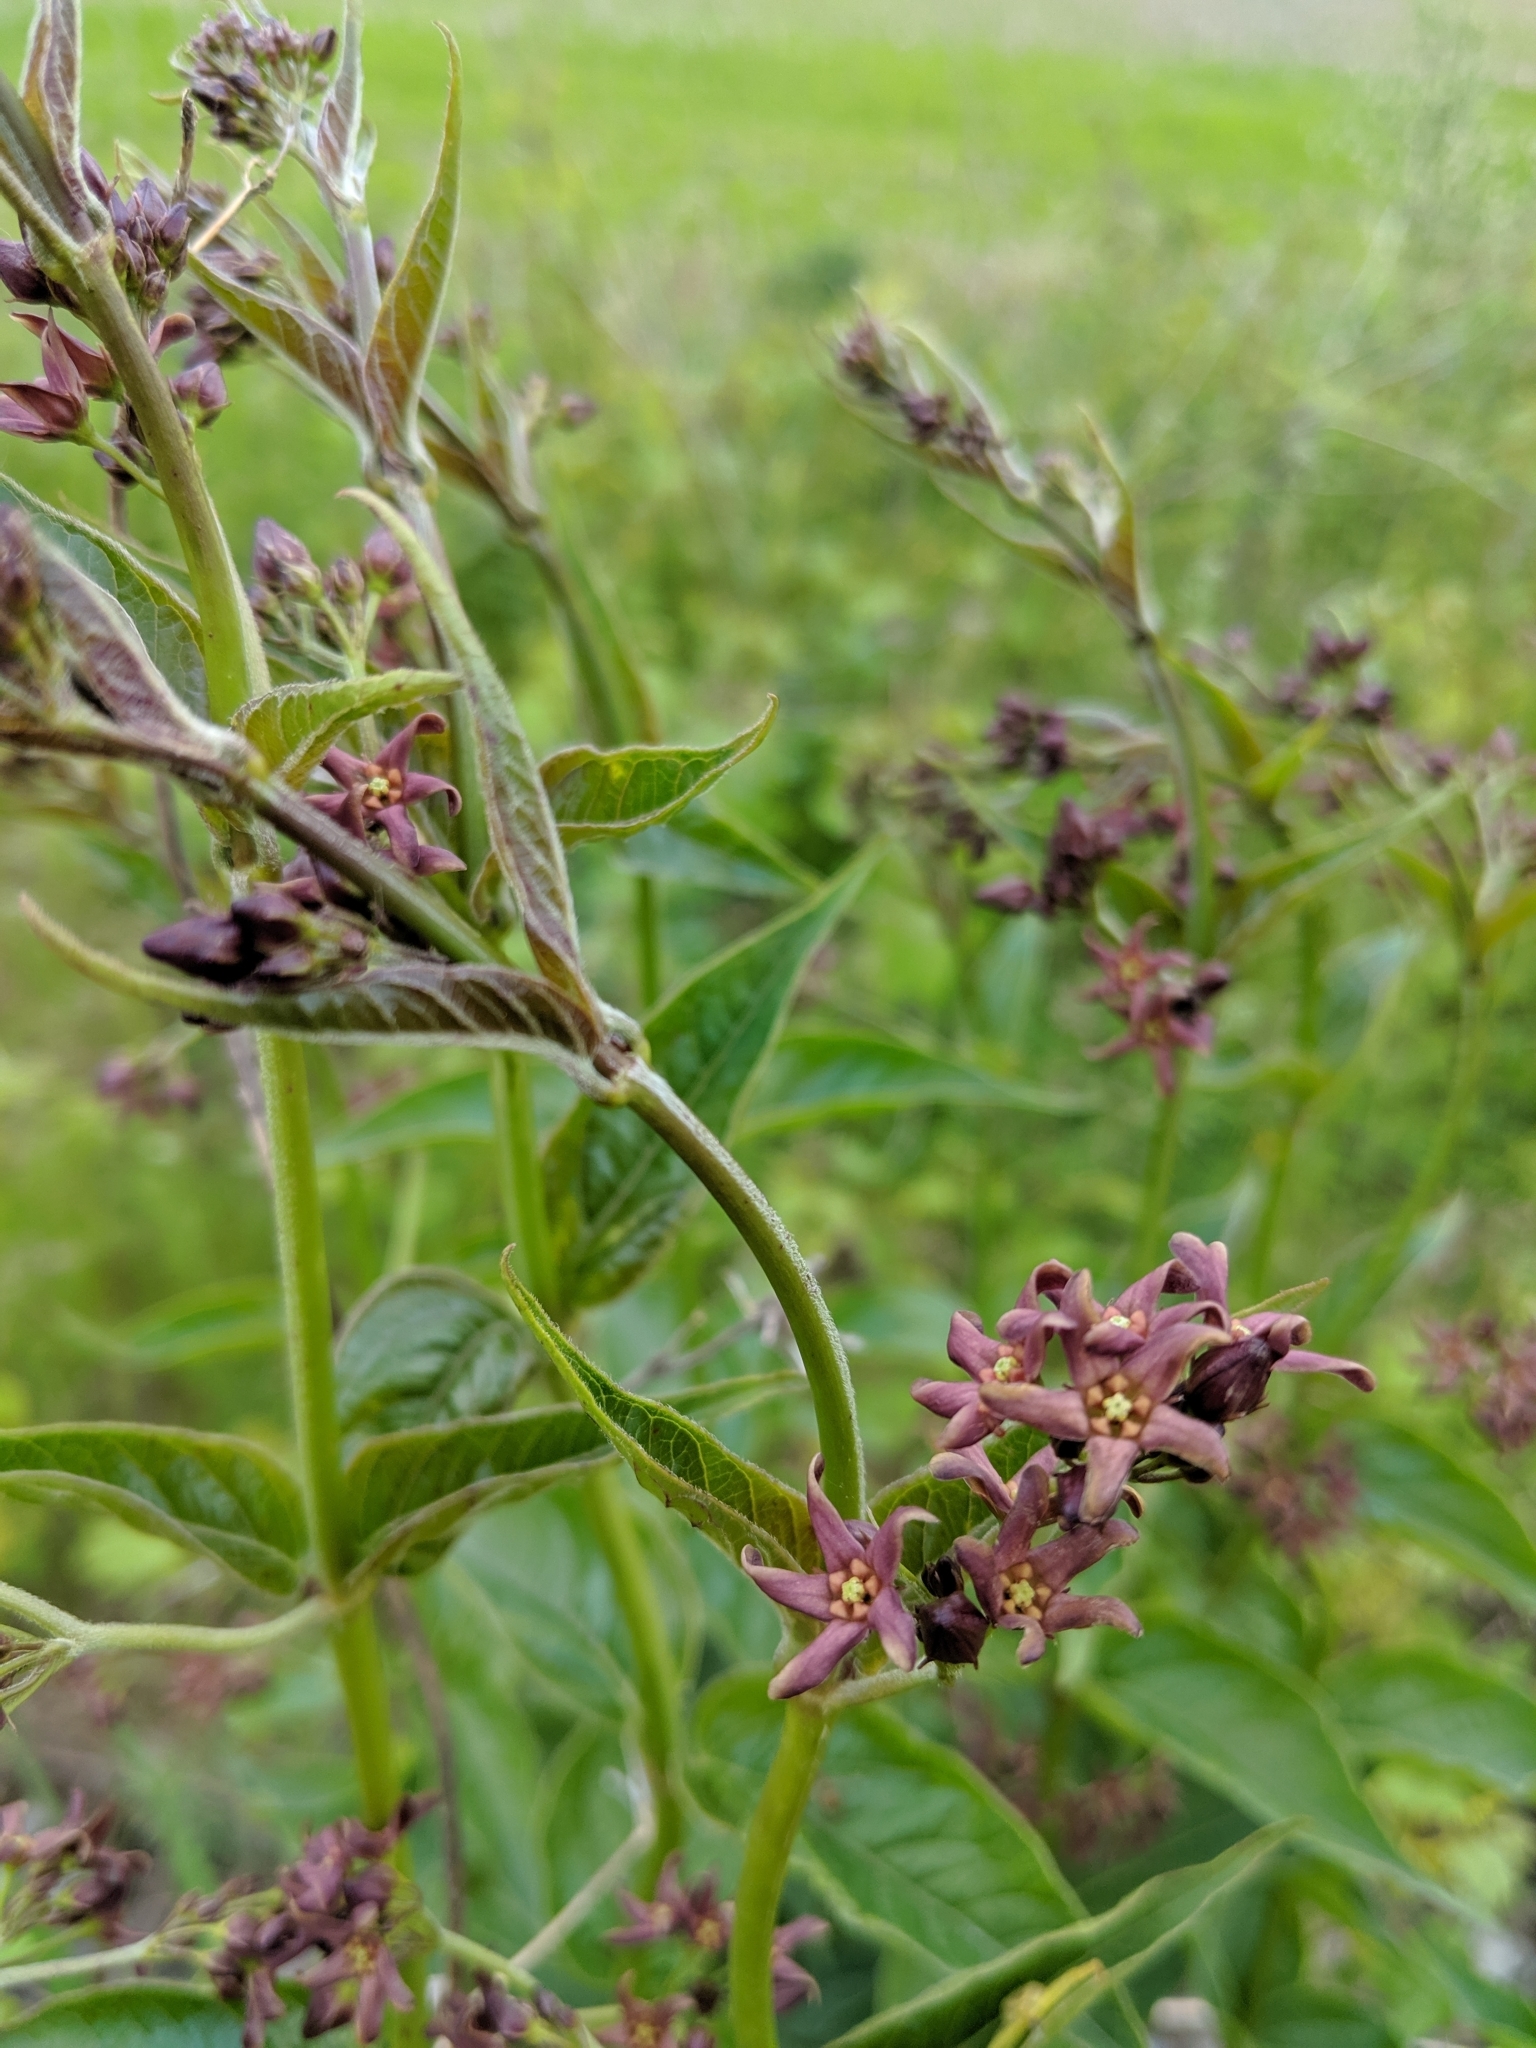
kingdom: Plantae
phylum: Tracheophyta
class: Magnoliopsida
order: Gentianales
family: Apocynaceae
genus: Vincetoxicum
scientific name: Vincetoxicum rossicum
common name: Dog-strangling vine
